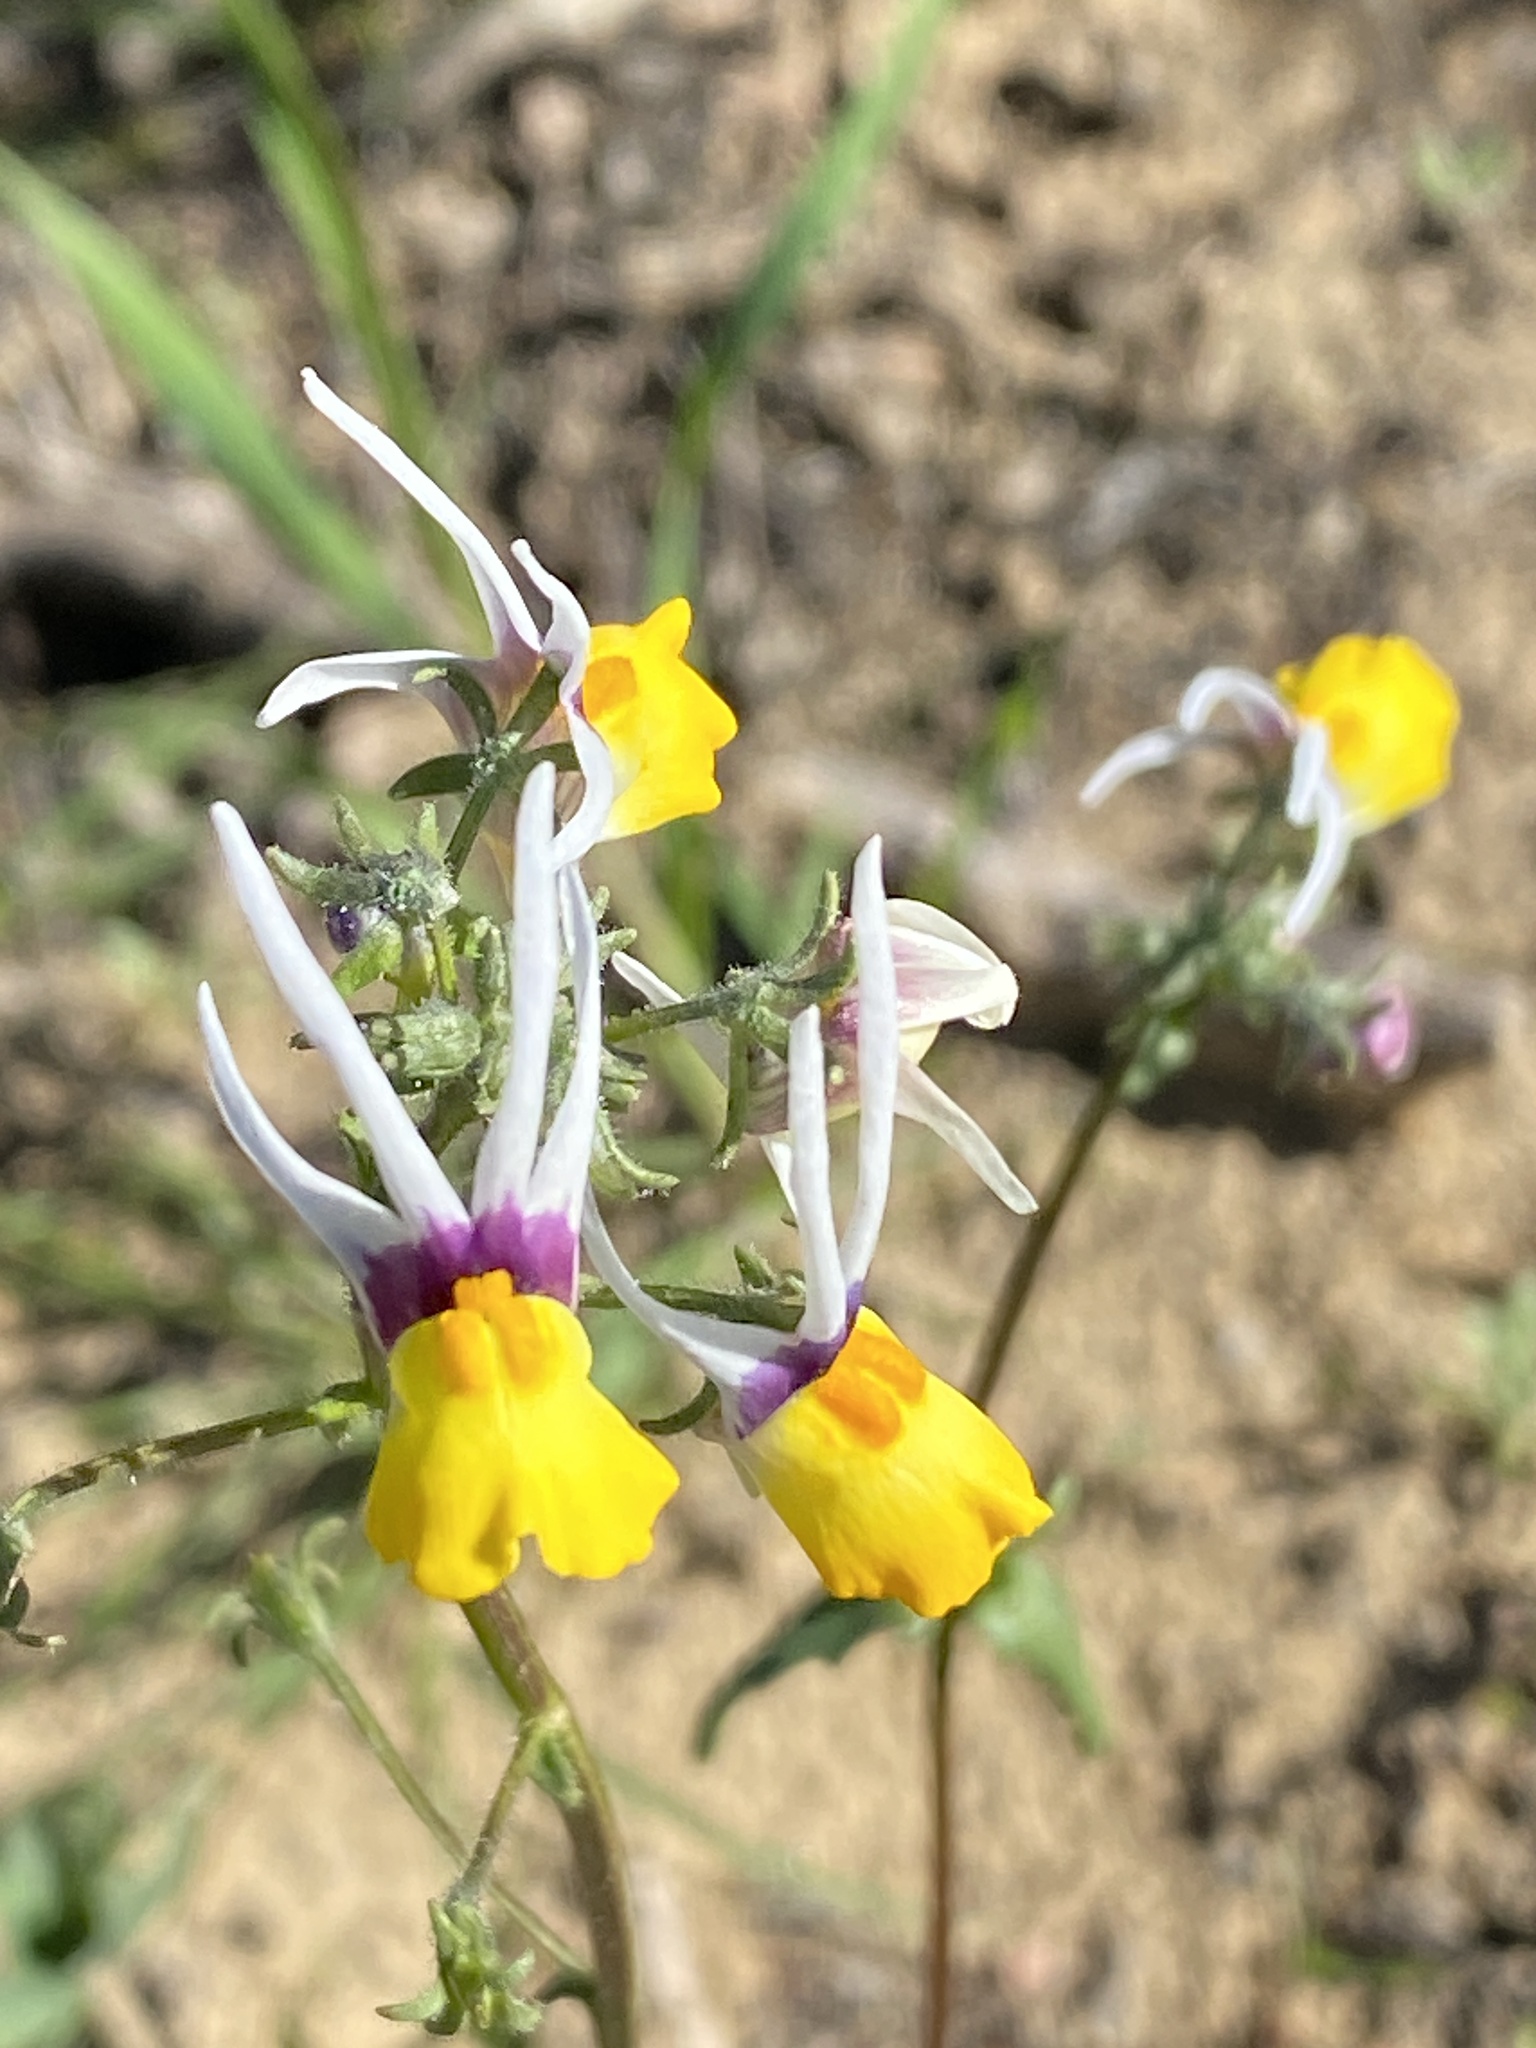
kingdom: Plantae
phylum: Tracheophyta
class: Magnoliopsida
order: Lamiales
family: Scrophulariaceae
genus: Nemesia
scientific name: Nemesia cheiranthus
